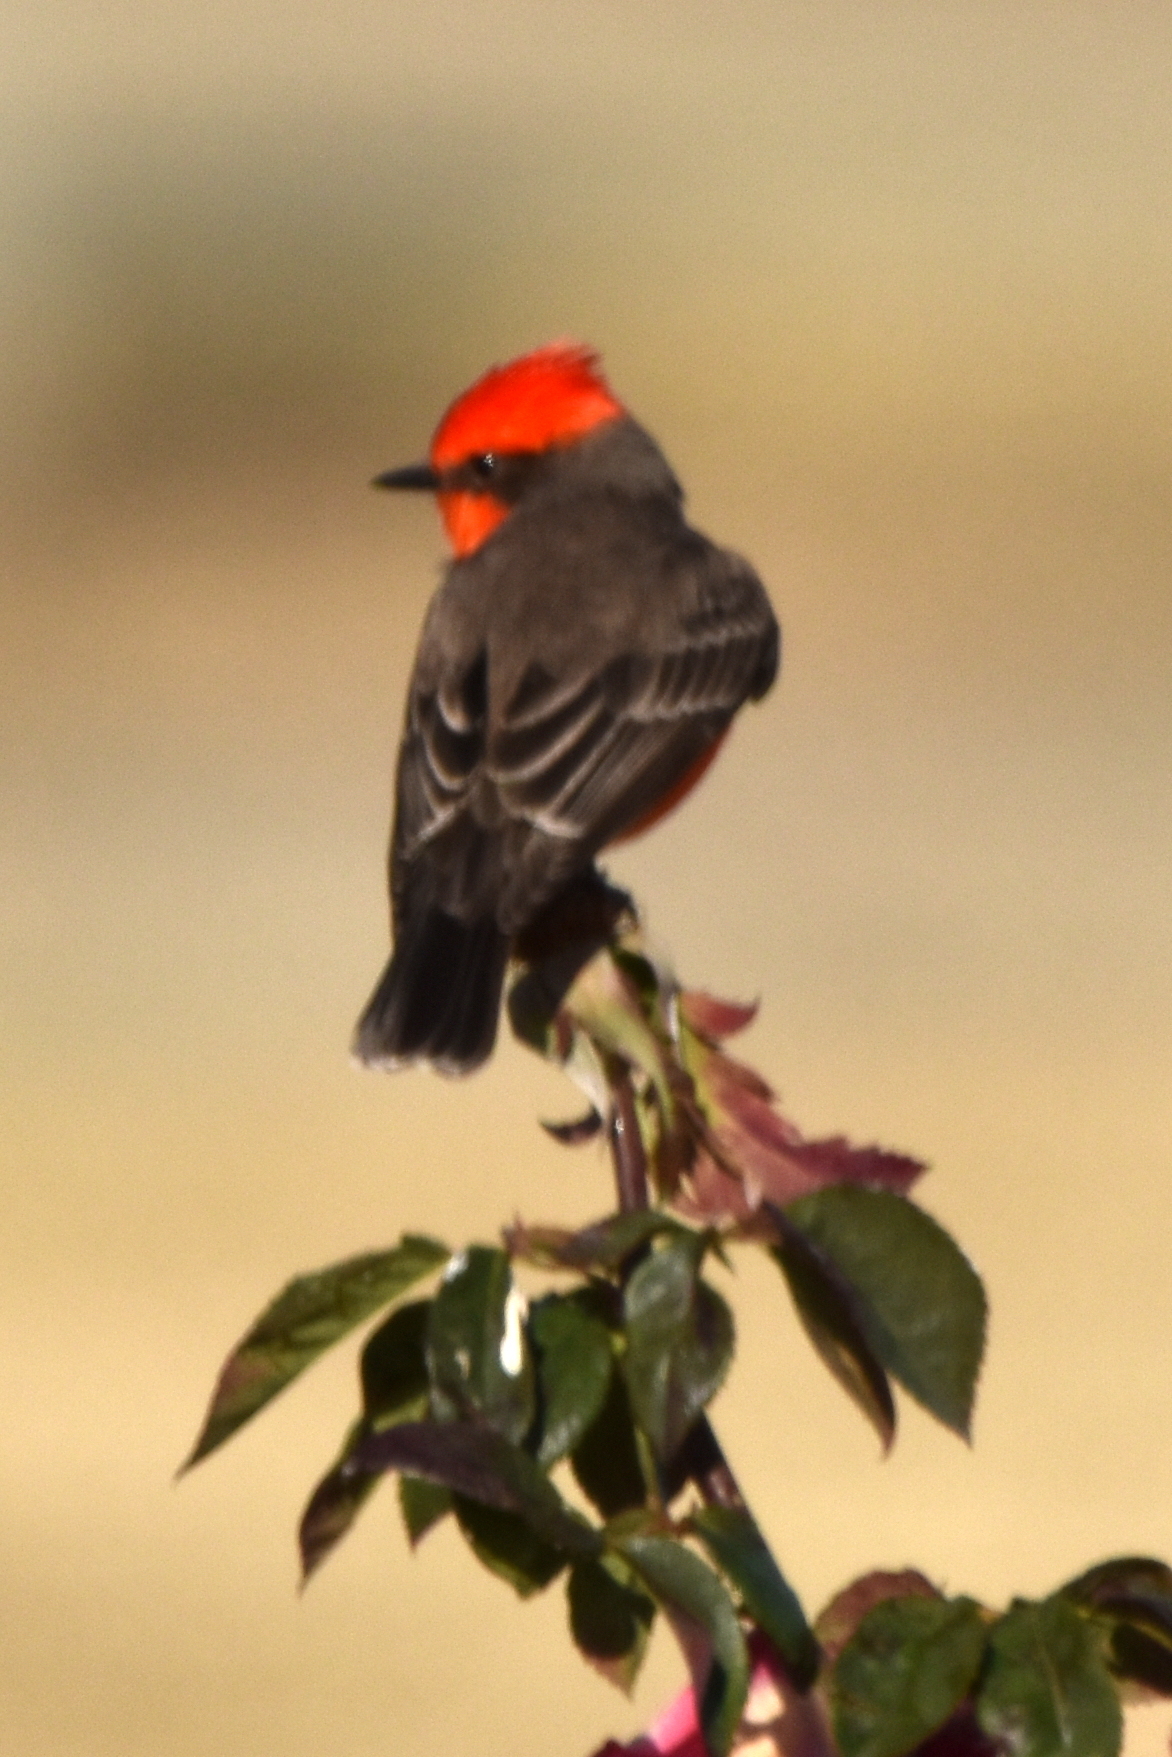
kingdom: Animalia
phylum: Chordata
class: Aves
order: Passeriformes
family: Tyrannidae
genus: Pyrocephalus
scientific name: Pyrocephalus rubinus
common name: Vermilion flycatcher
